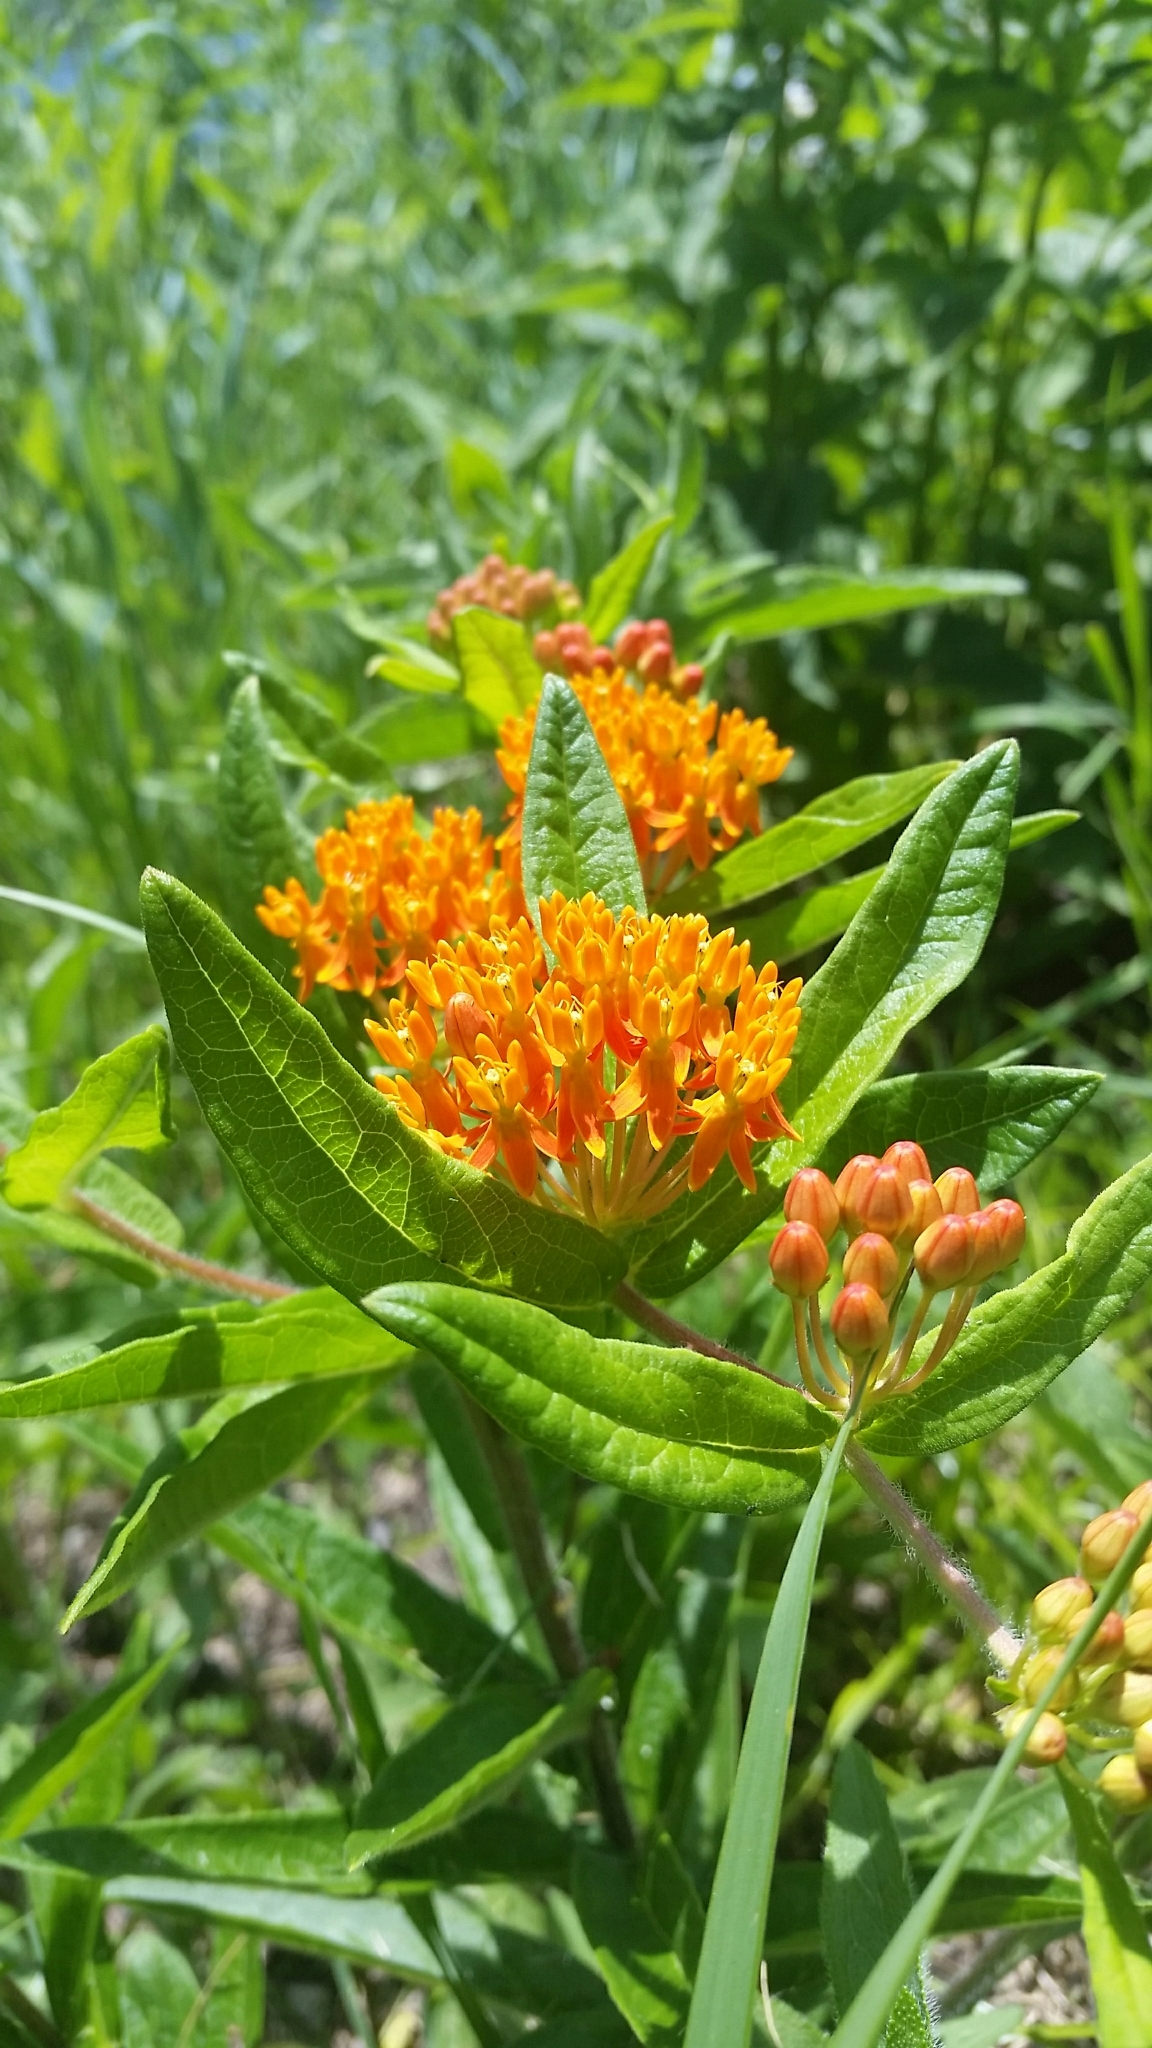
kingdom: Plantae
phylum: Tracheophyta
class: Magnoliopsida
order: Gentianales
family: Apocynaceae
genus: Asclepias
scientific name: Asclepias tuberosa
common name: Butterfly milkweed
